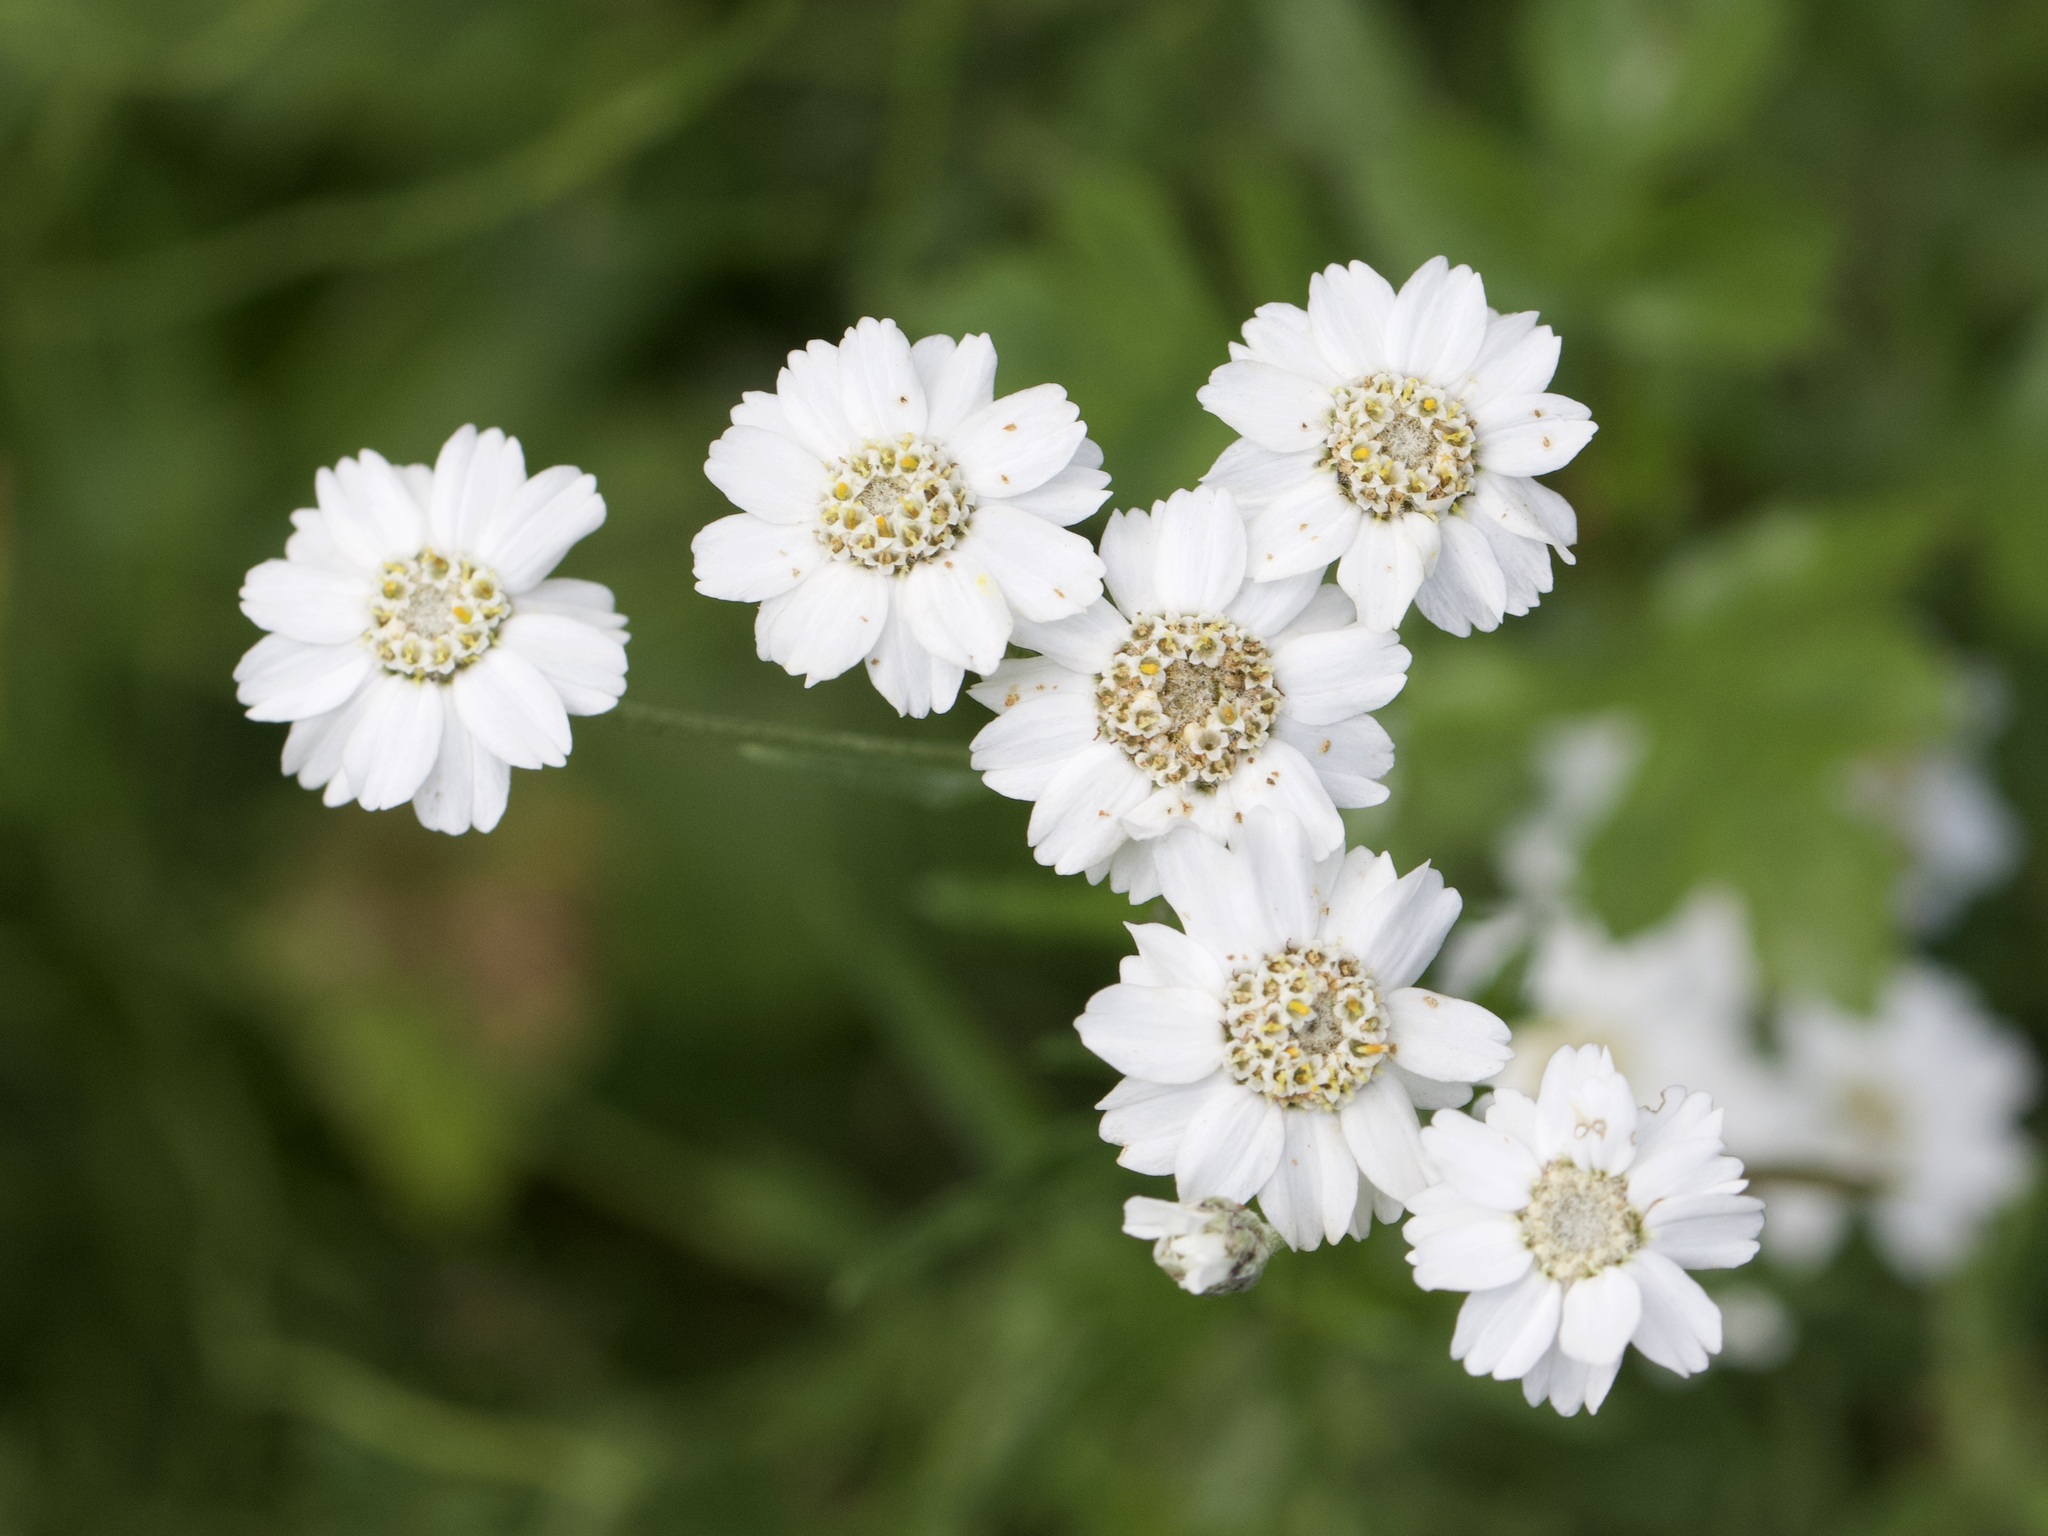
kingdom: Plantae
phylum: Tracheophyta
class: Magnoliopsida
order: Asterales
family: Asteraceae
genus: Achillea
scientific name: Achillea ptarmica
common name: Sneezeweed
